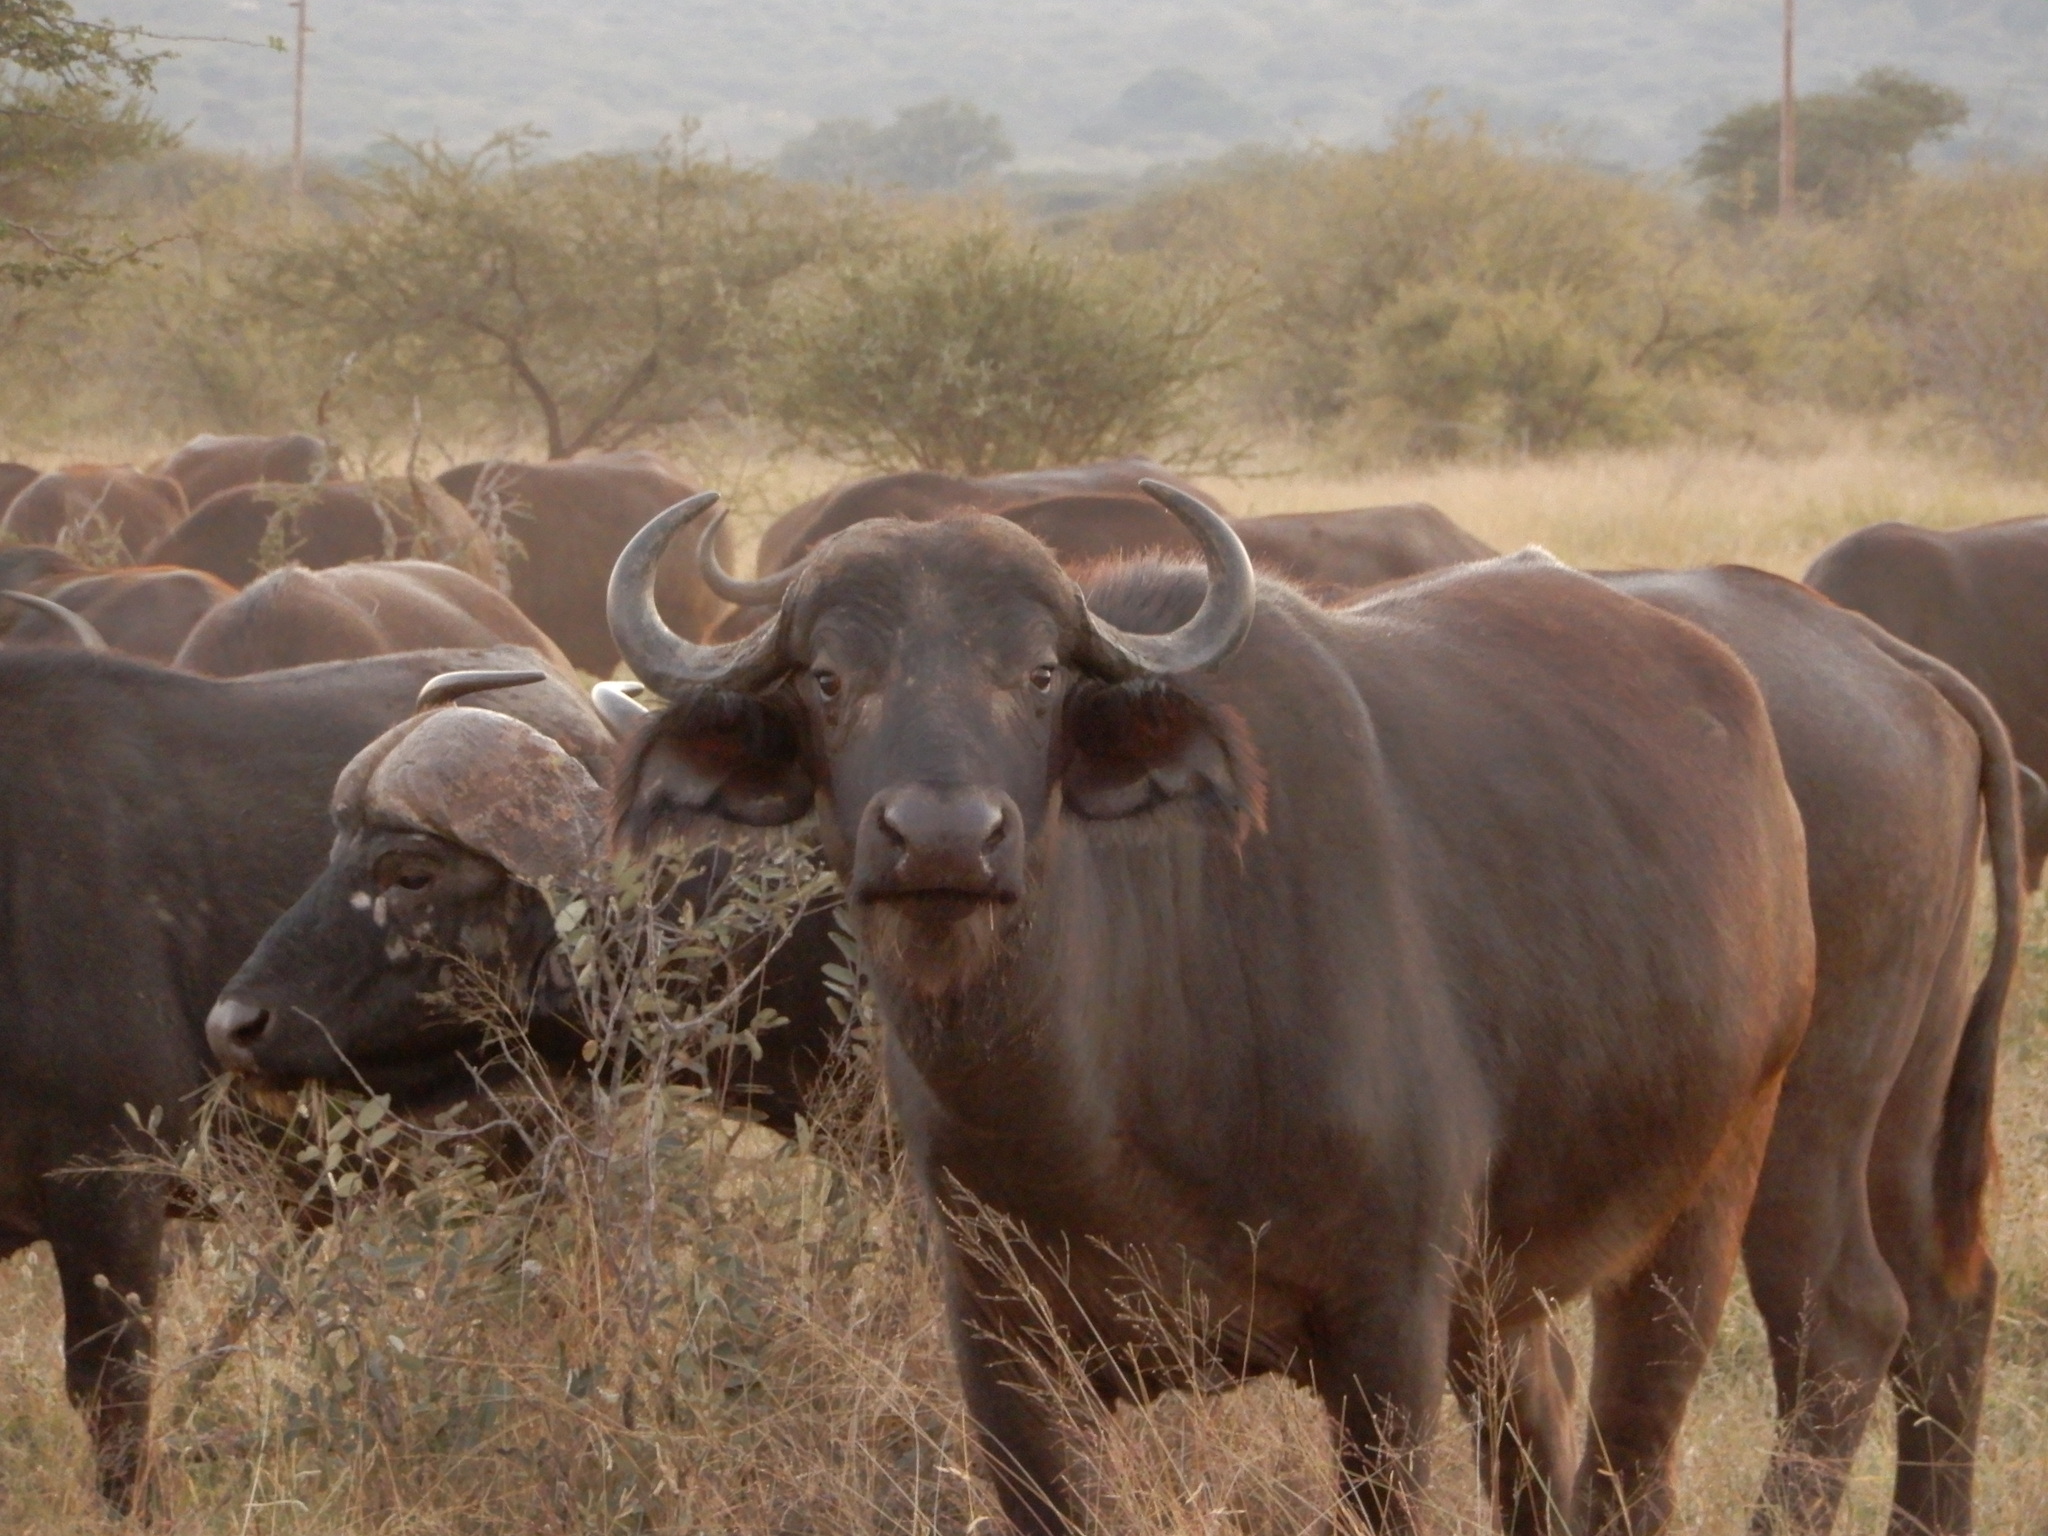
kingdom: Animalia
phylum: Chordata
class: Mammalia
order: Artiodactyla
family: Bovidae
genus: Syncerus
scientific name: Syncerus caffer
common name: African buffalo
